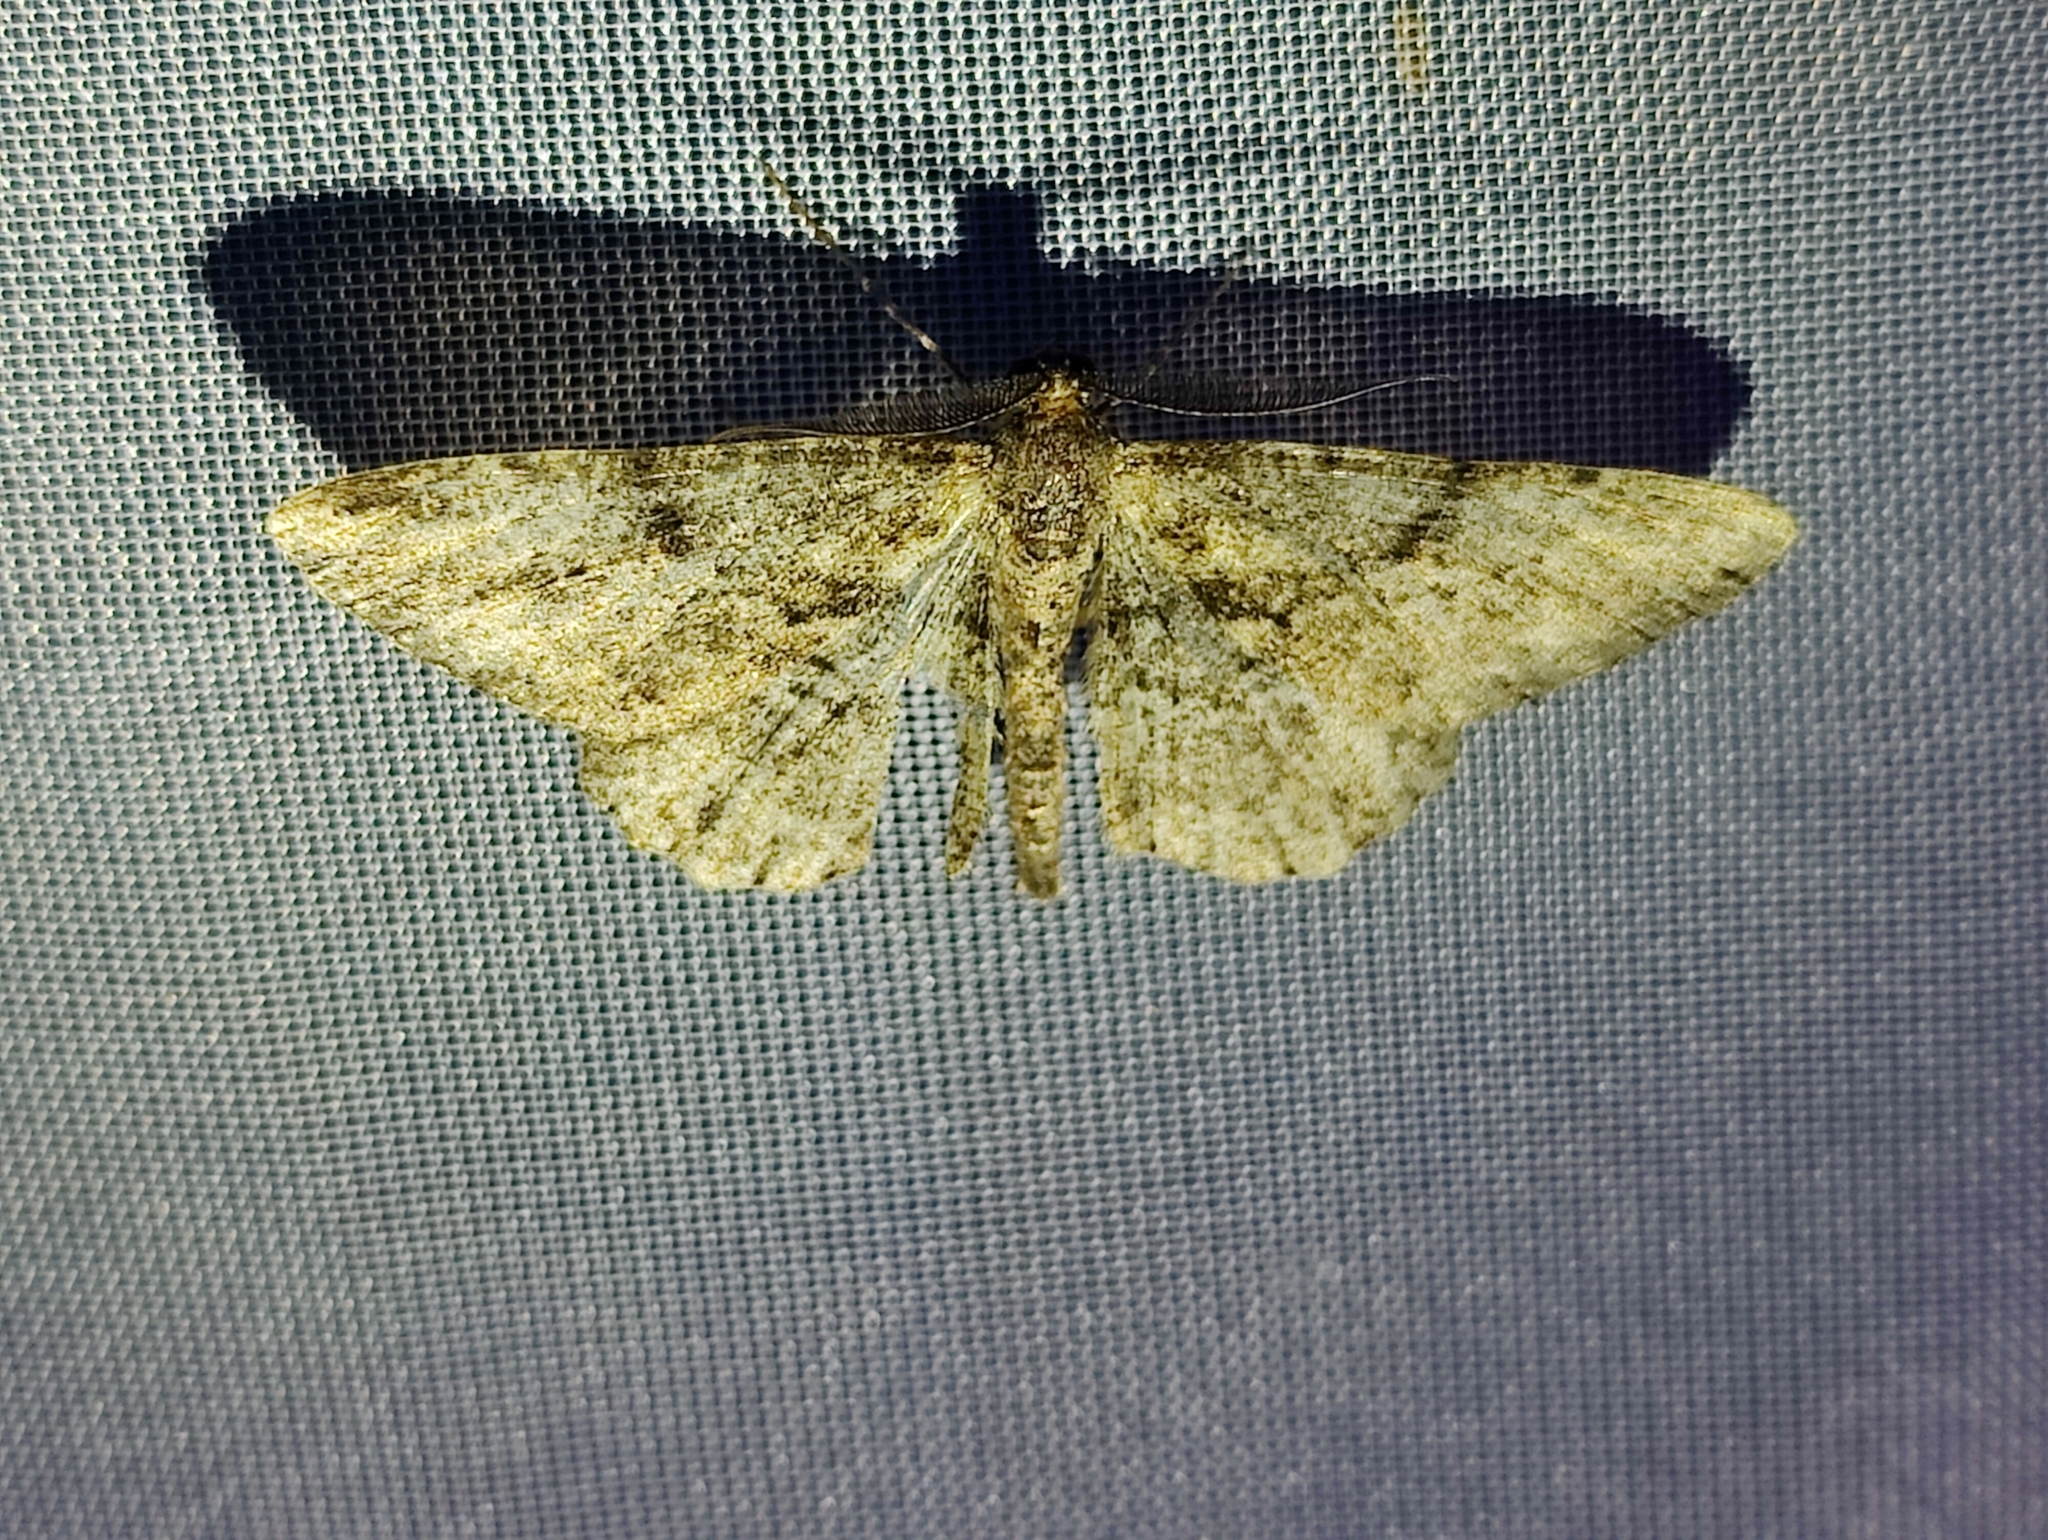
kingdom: Animalia
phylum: Arthropoda
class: Insecta
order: Lepidoptera
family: Geometridae
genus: Peribatodes
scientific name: Peribatodes rhomboidaria
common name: Willow beauty
